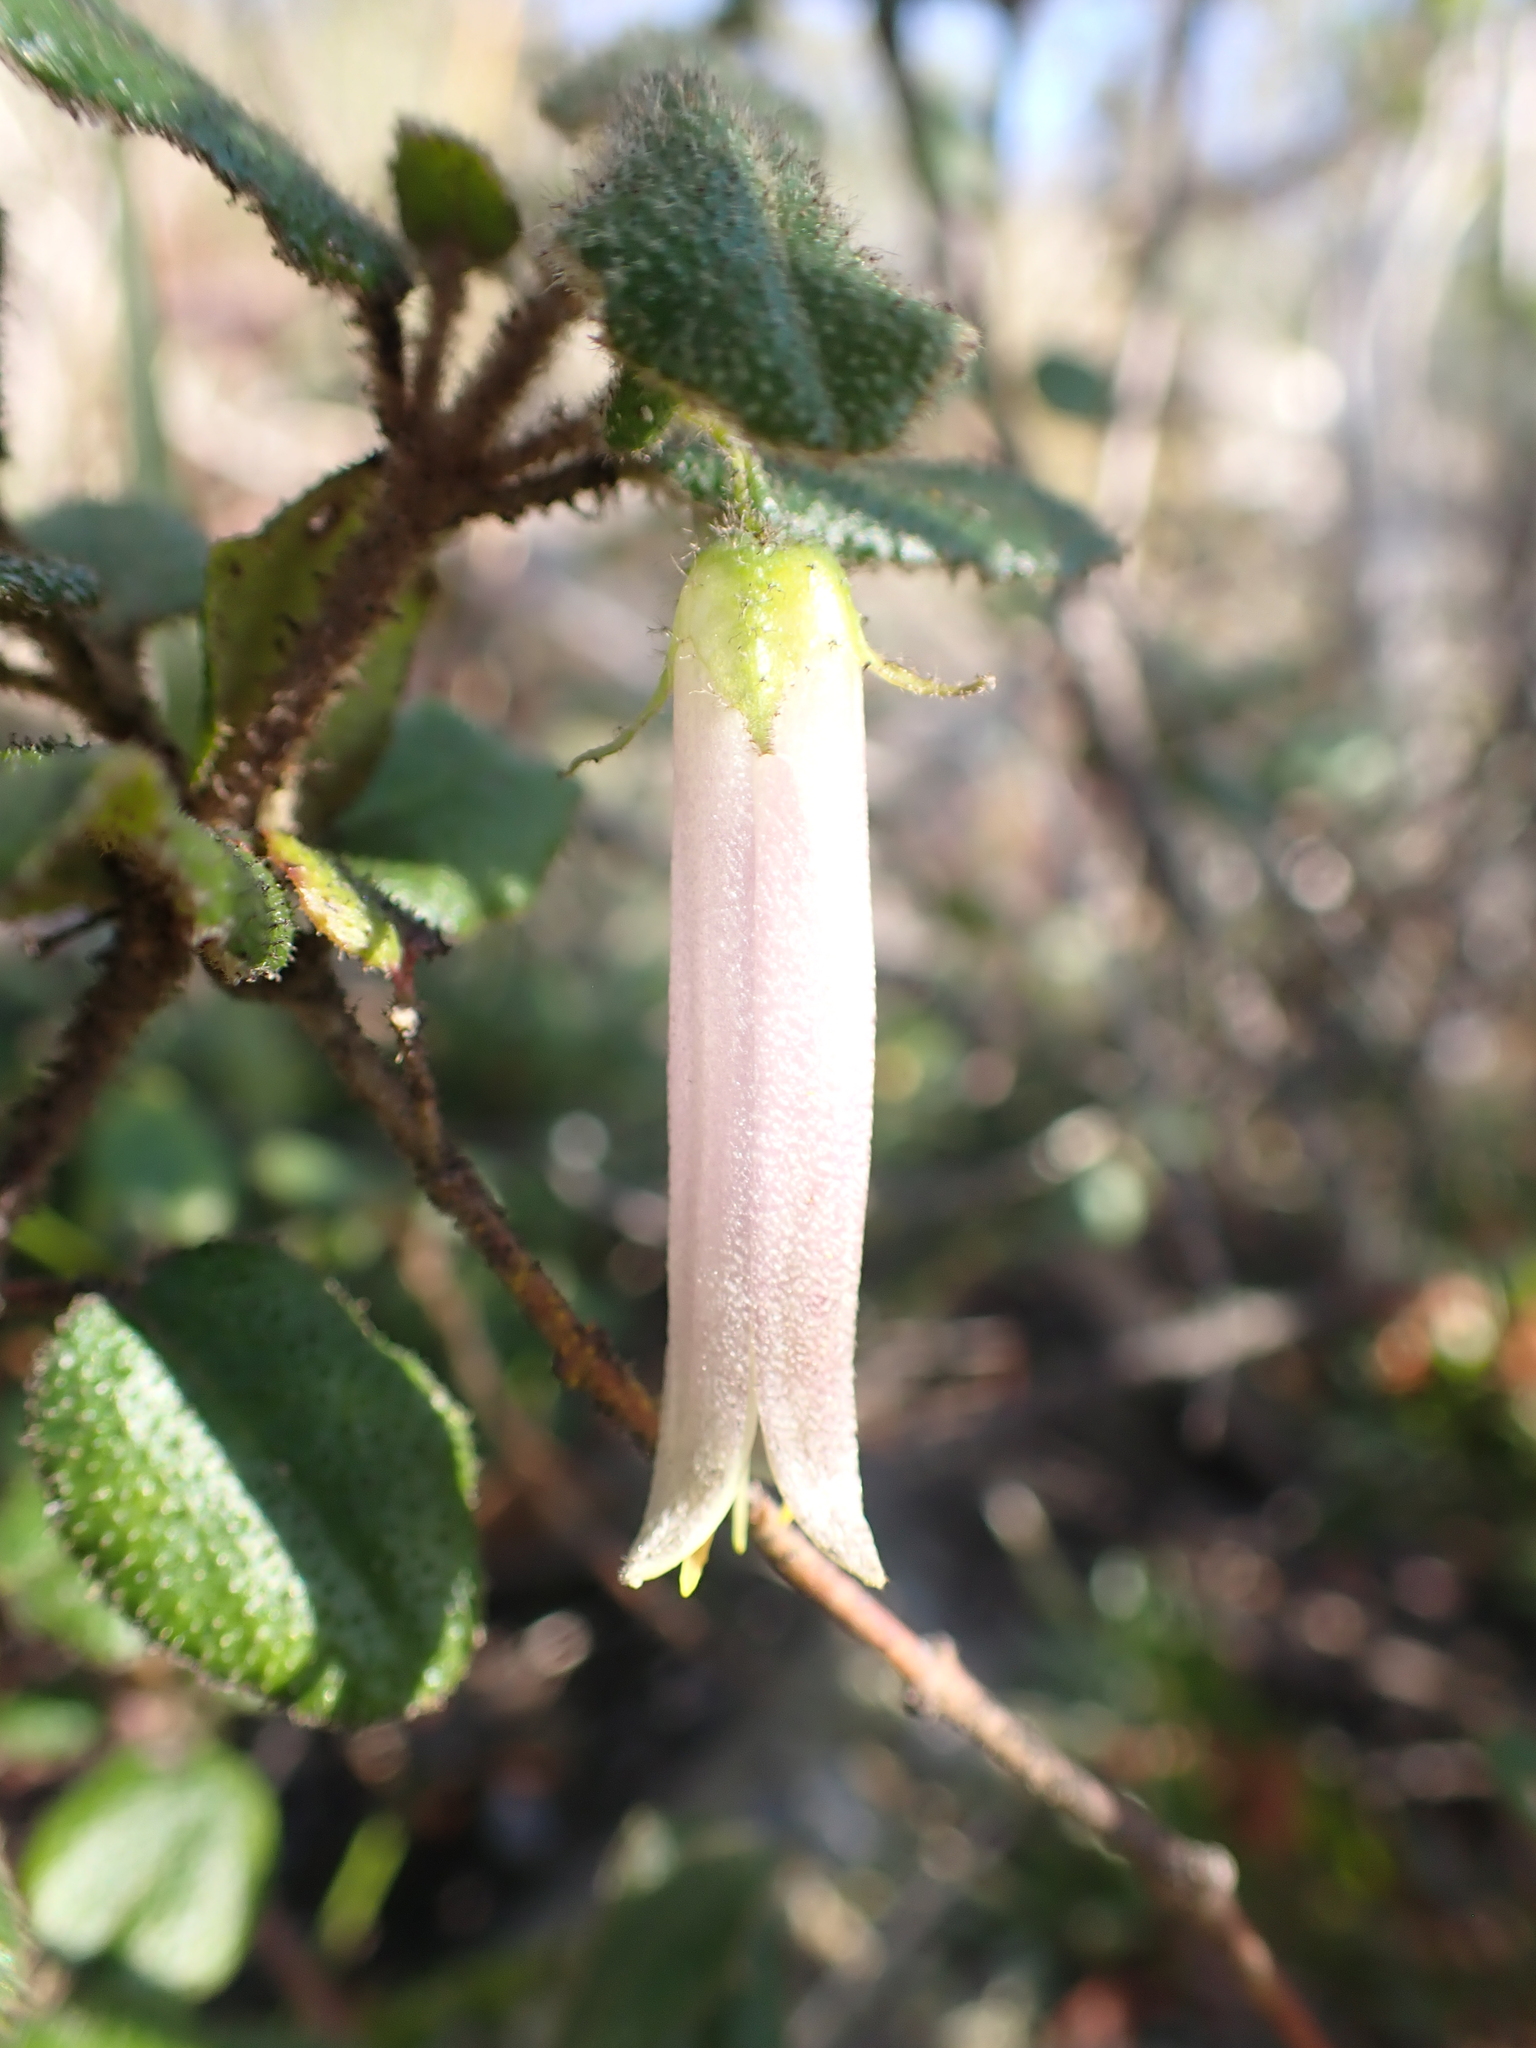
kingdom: Plantae
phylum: Tracheophyta
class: Magnoliopsida
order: Sapindales
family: Rutaceae
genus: Correa
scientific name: Correa aemula
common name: Hairy correa
